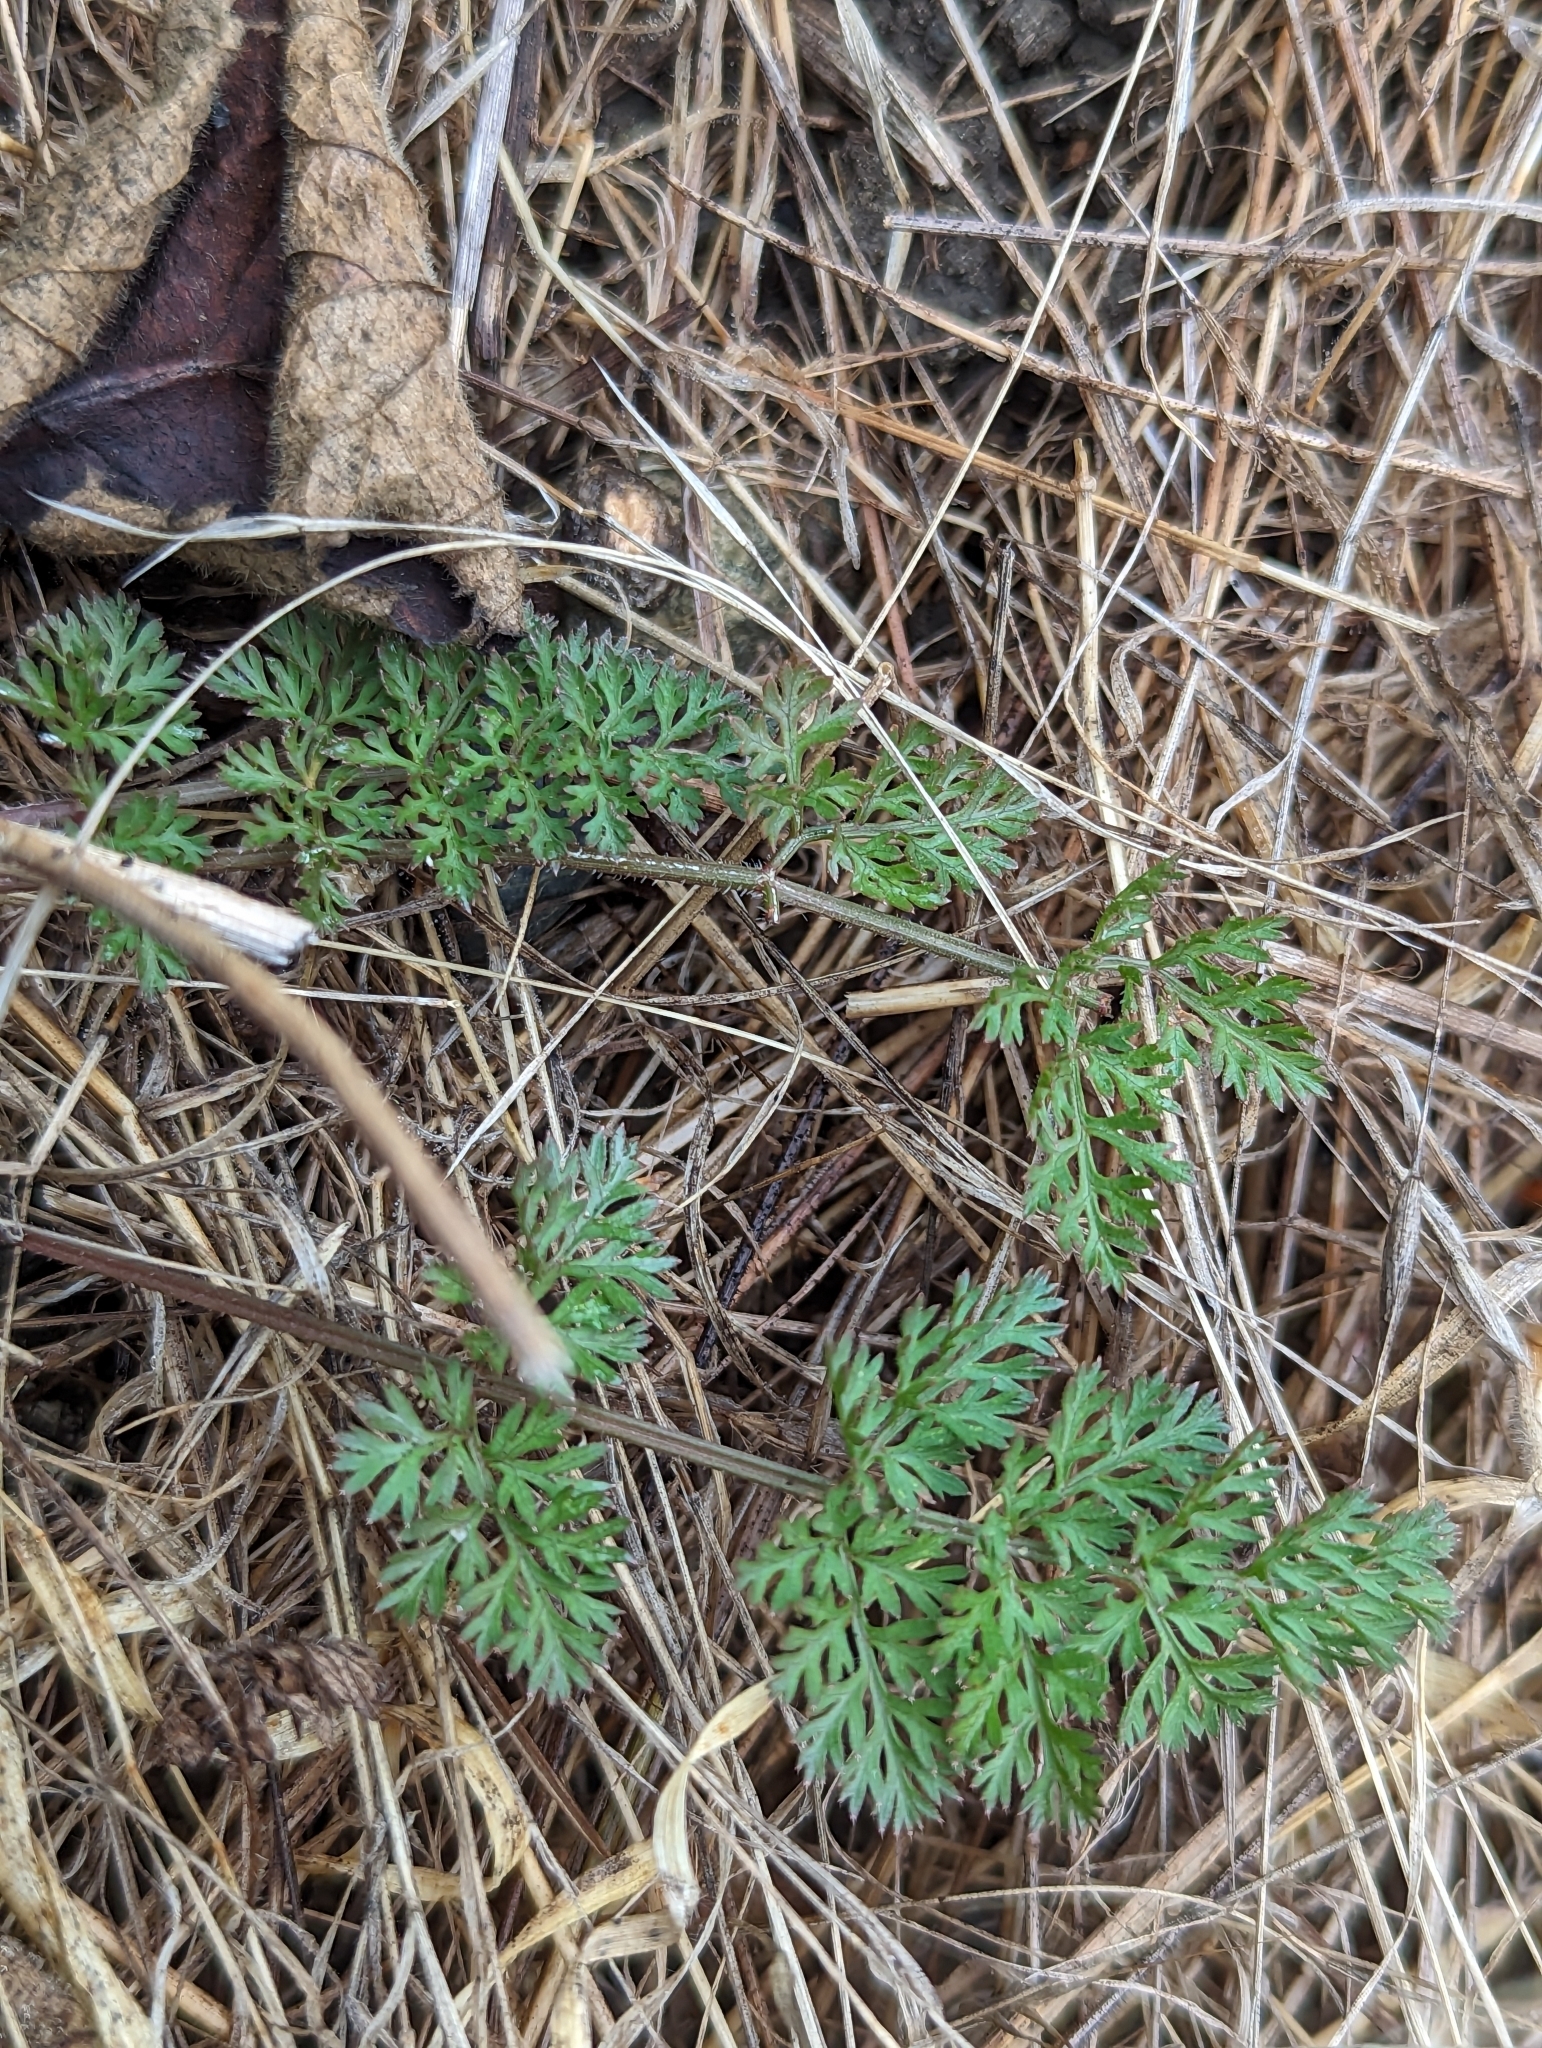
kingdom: Plantae
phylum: Tracheophyta
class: Magnoliopsida
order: Apiales
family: Apiaceae
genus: Daucus
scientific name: Daucus carota
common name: Wild carrot
